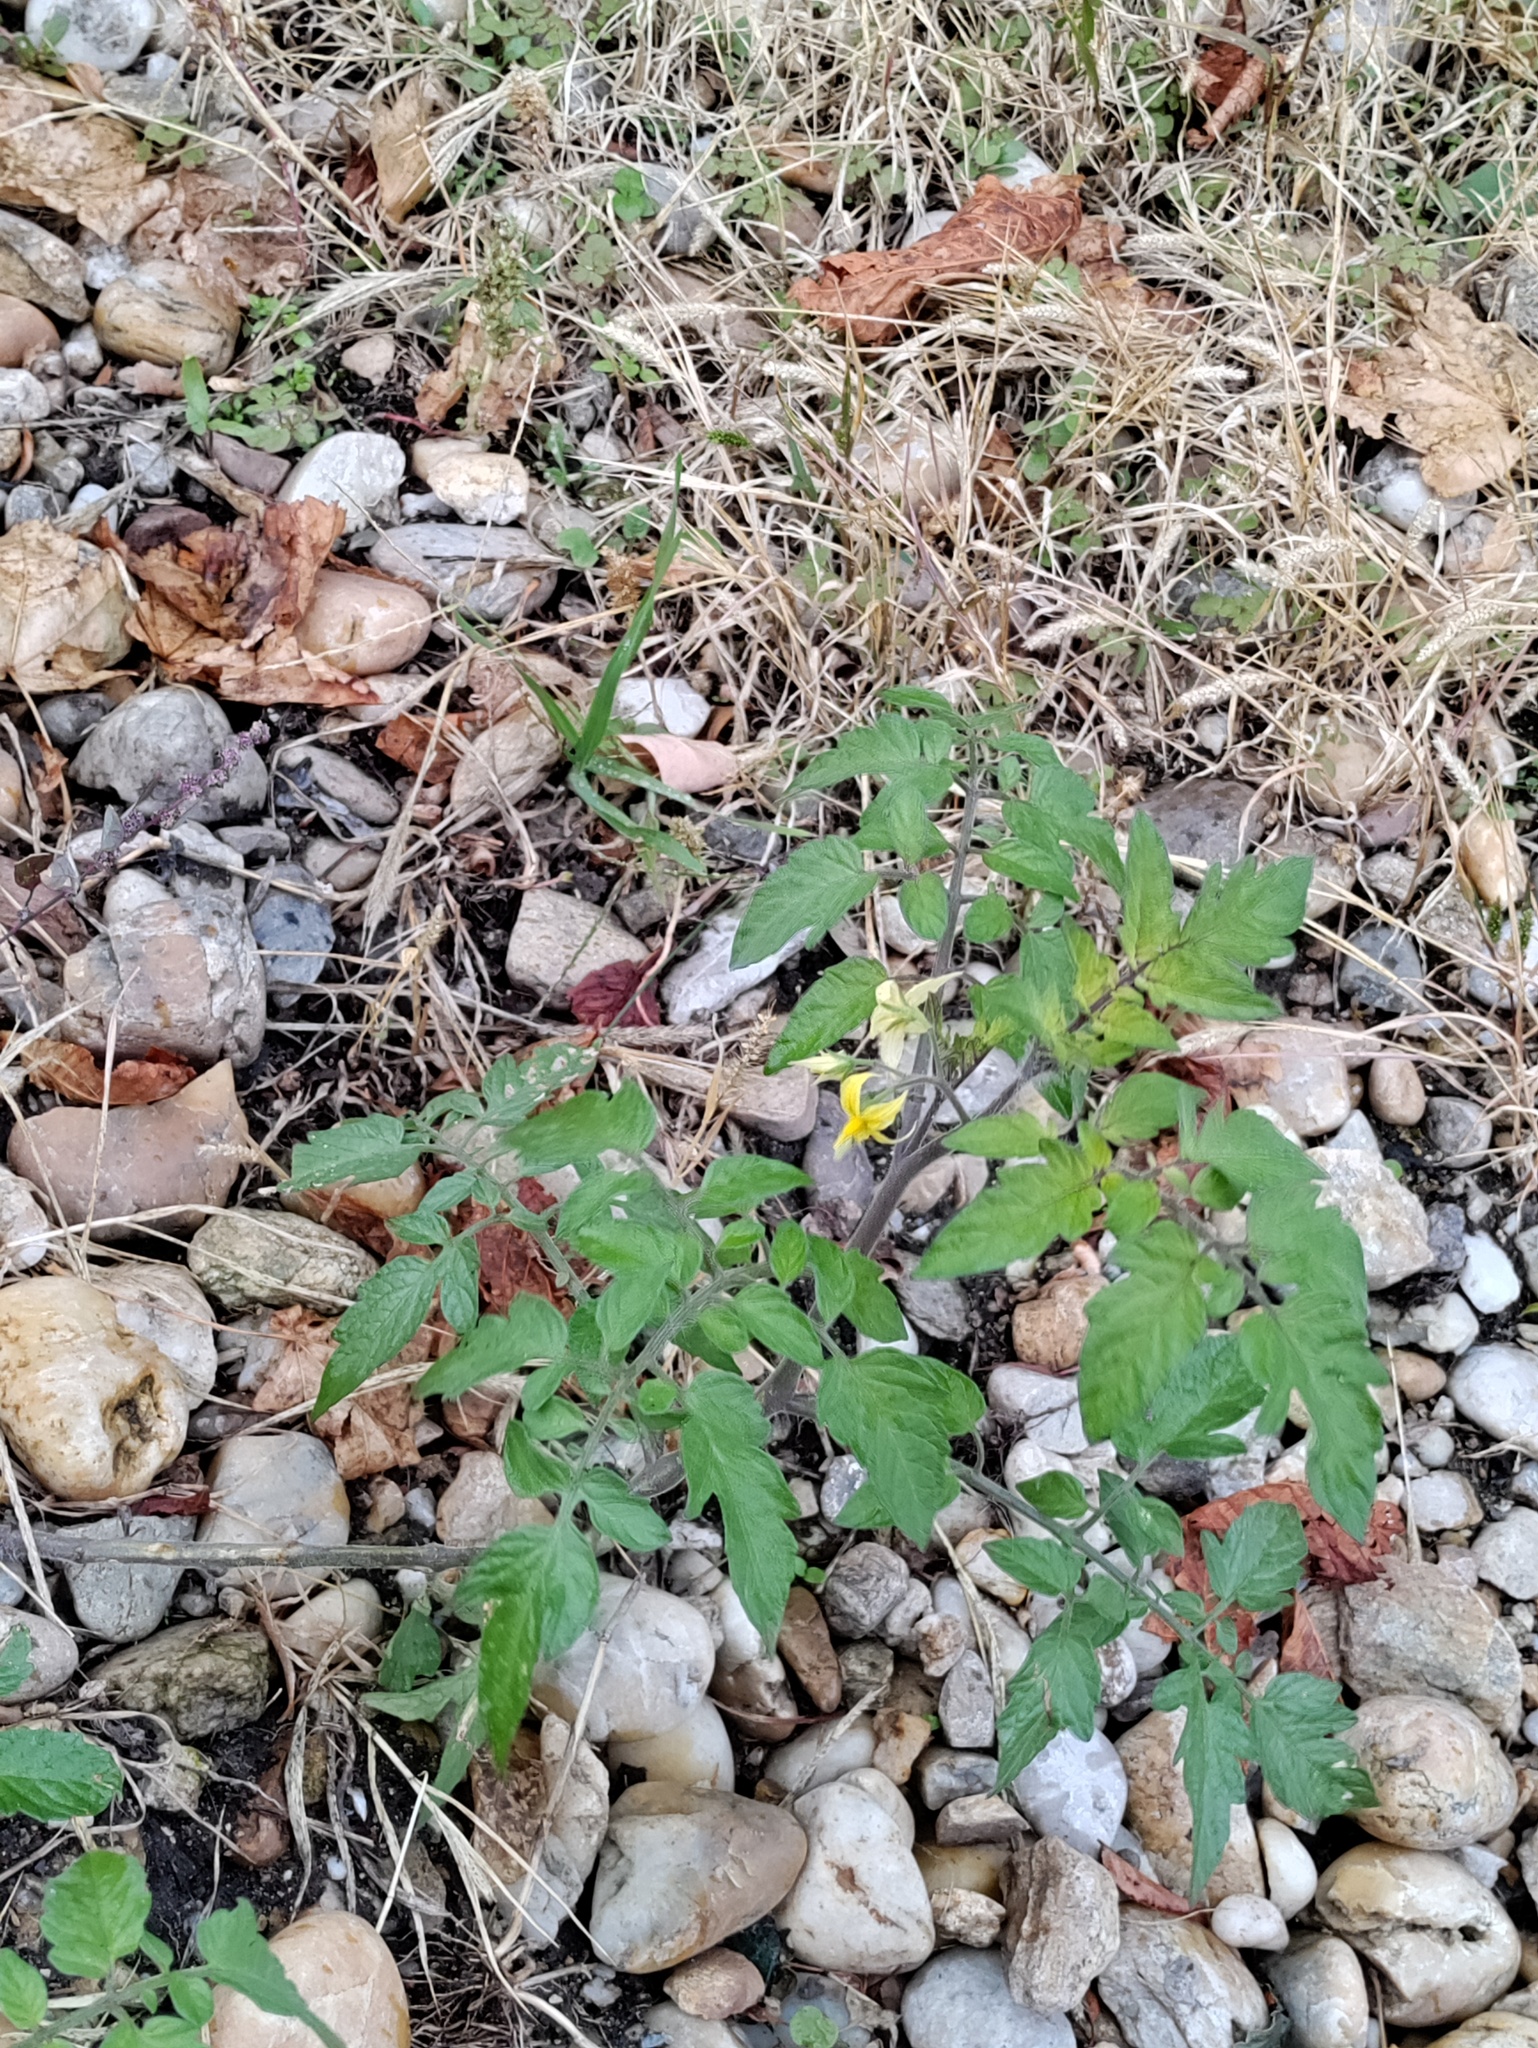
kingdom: Plantae
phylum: Tracheophyta
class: Magnoliopsida
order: Solanales
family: Solanaceae
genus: Solanum
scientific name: Solanum lycopersicum
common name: Garden tomato
